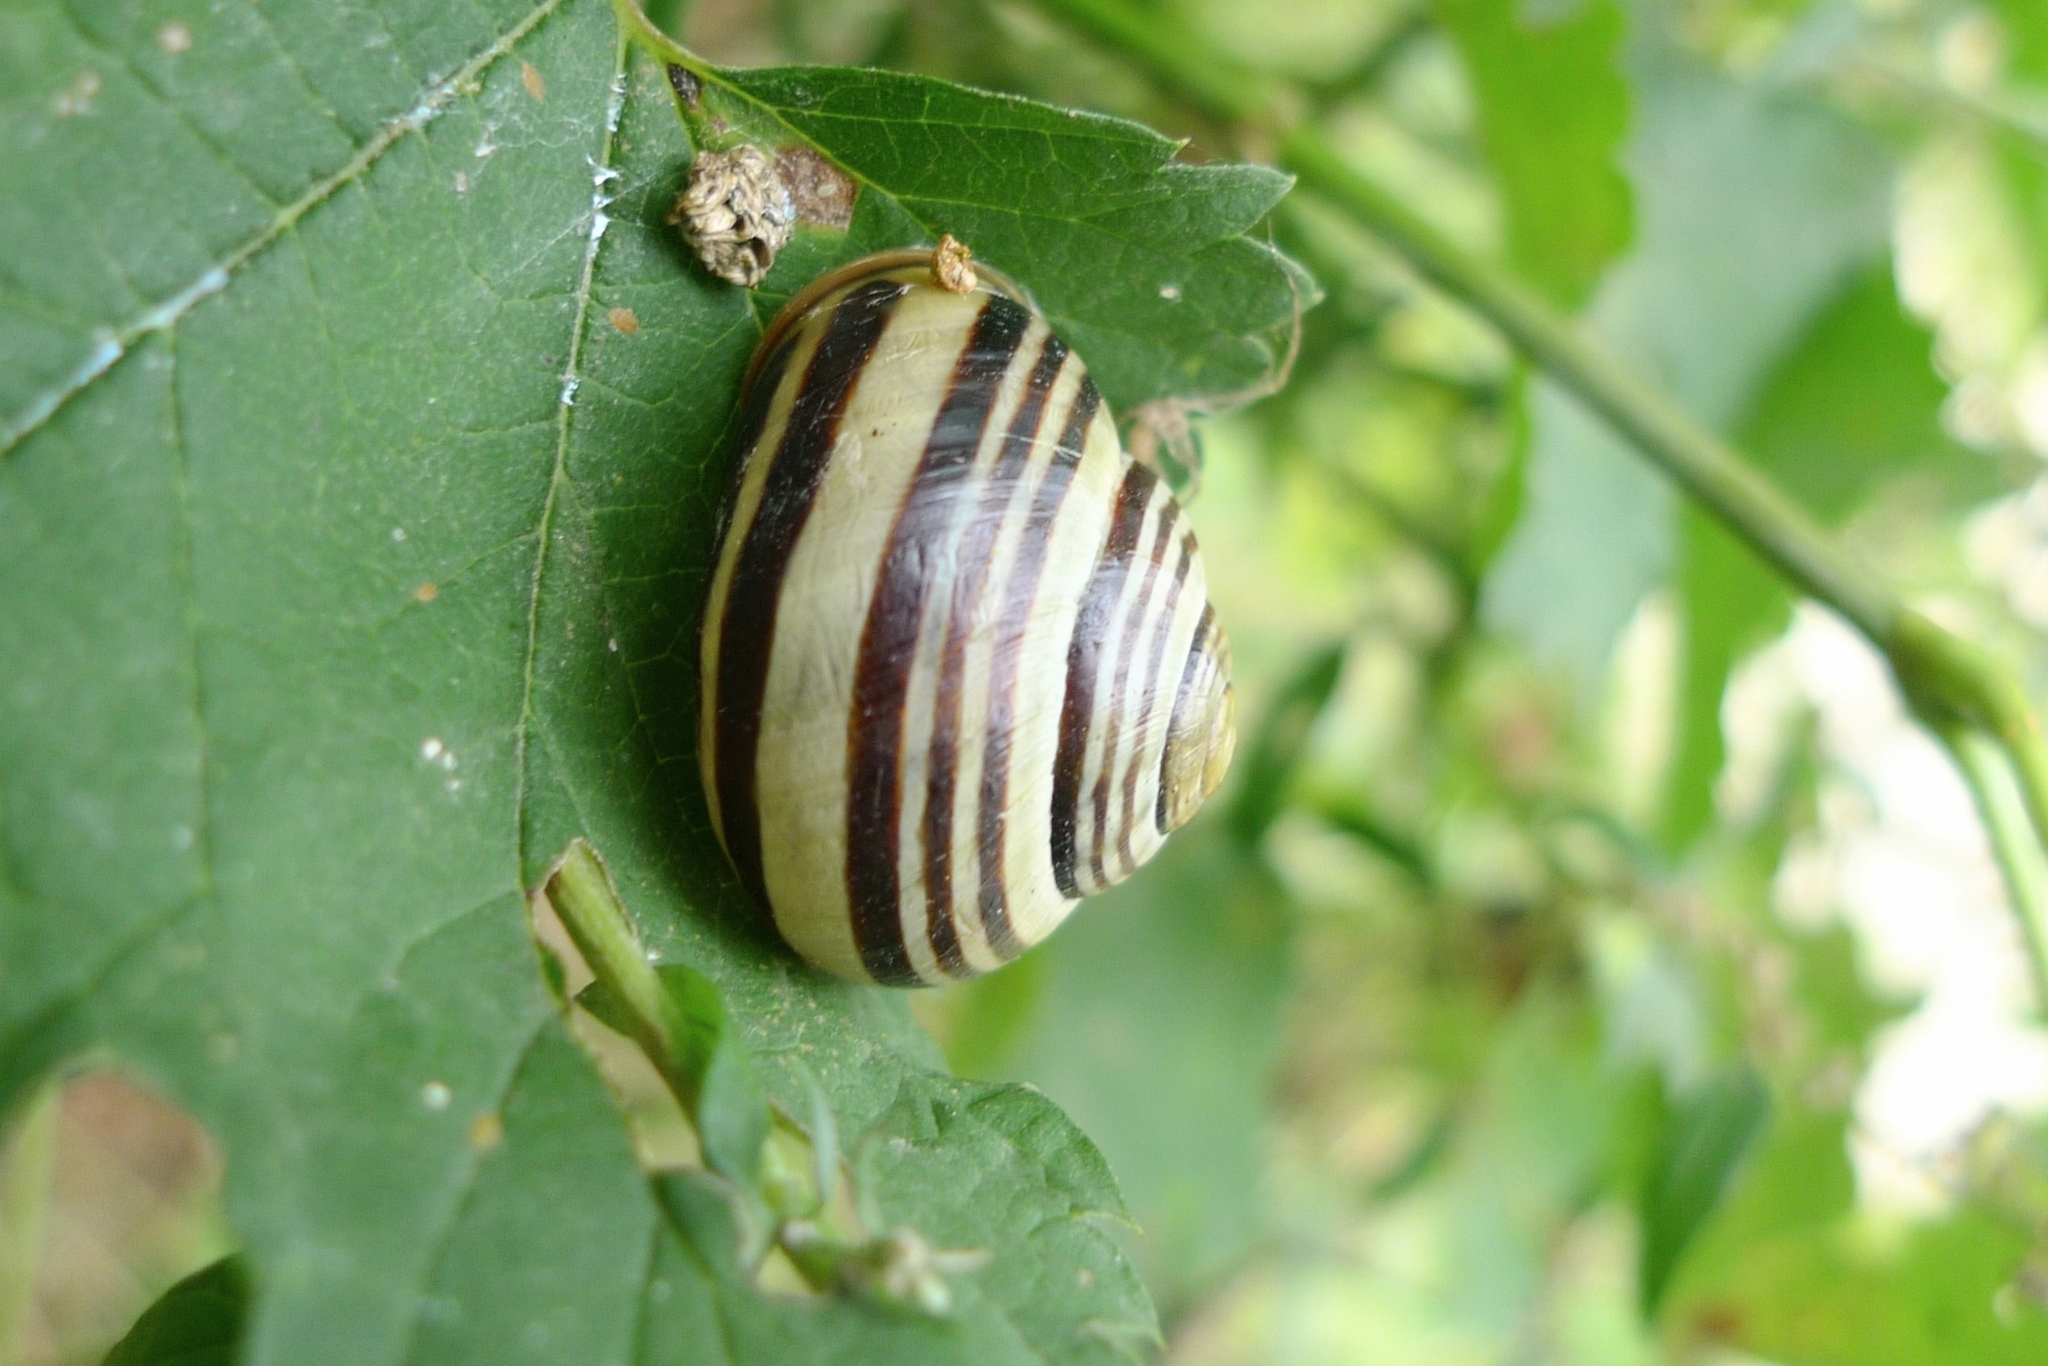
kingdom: Animalia
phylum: Mollusca
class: Gastropoda
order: Stylommatophora
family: Helicidae
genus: Cepaea
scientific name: Cepaea nemoralis
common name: Grovesnail
